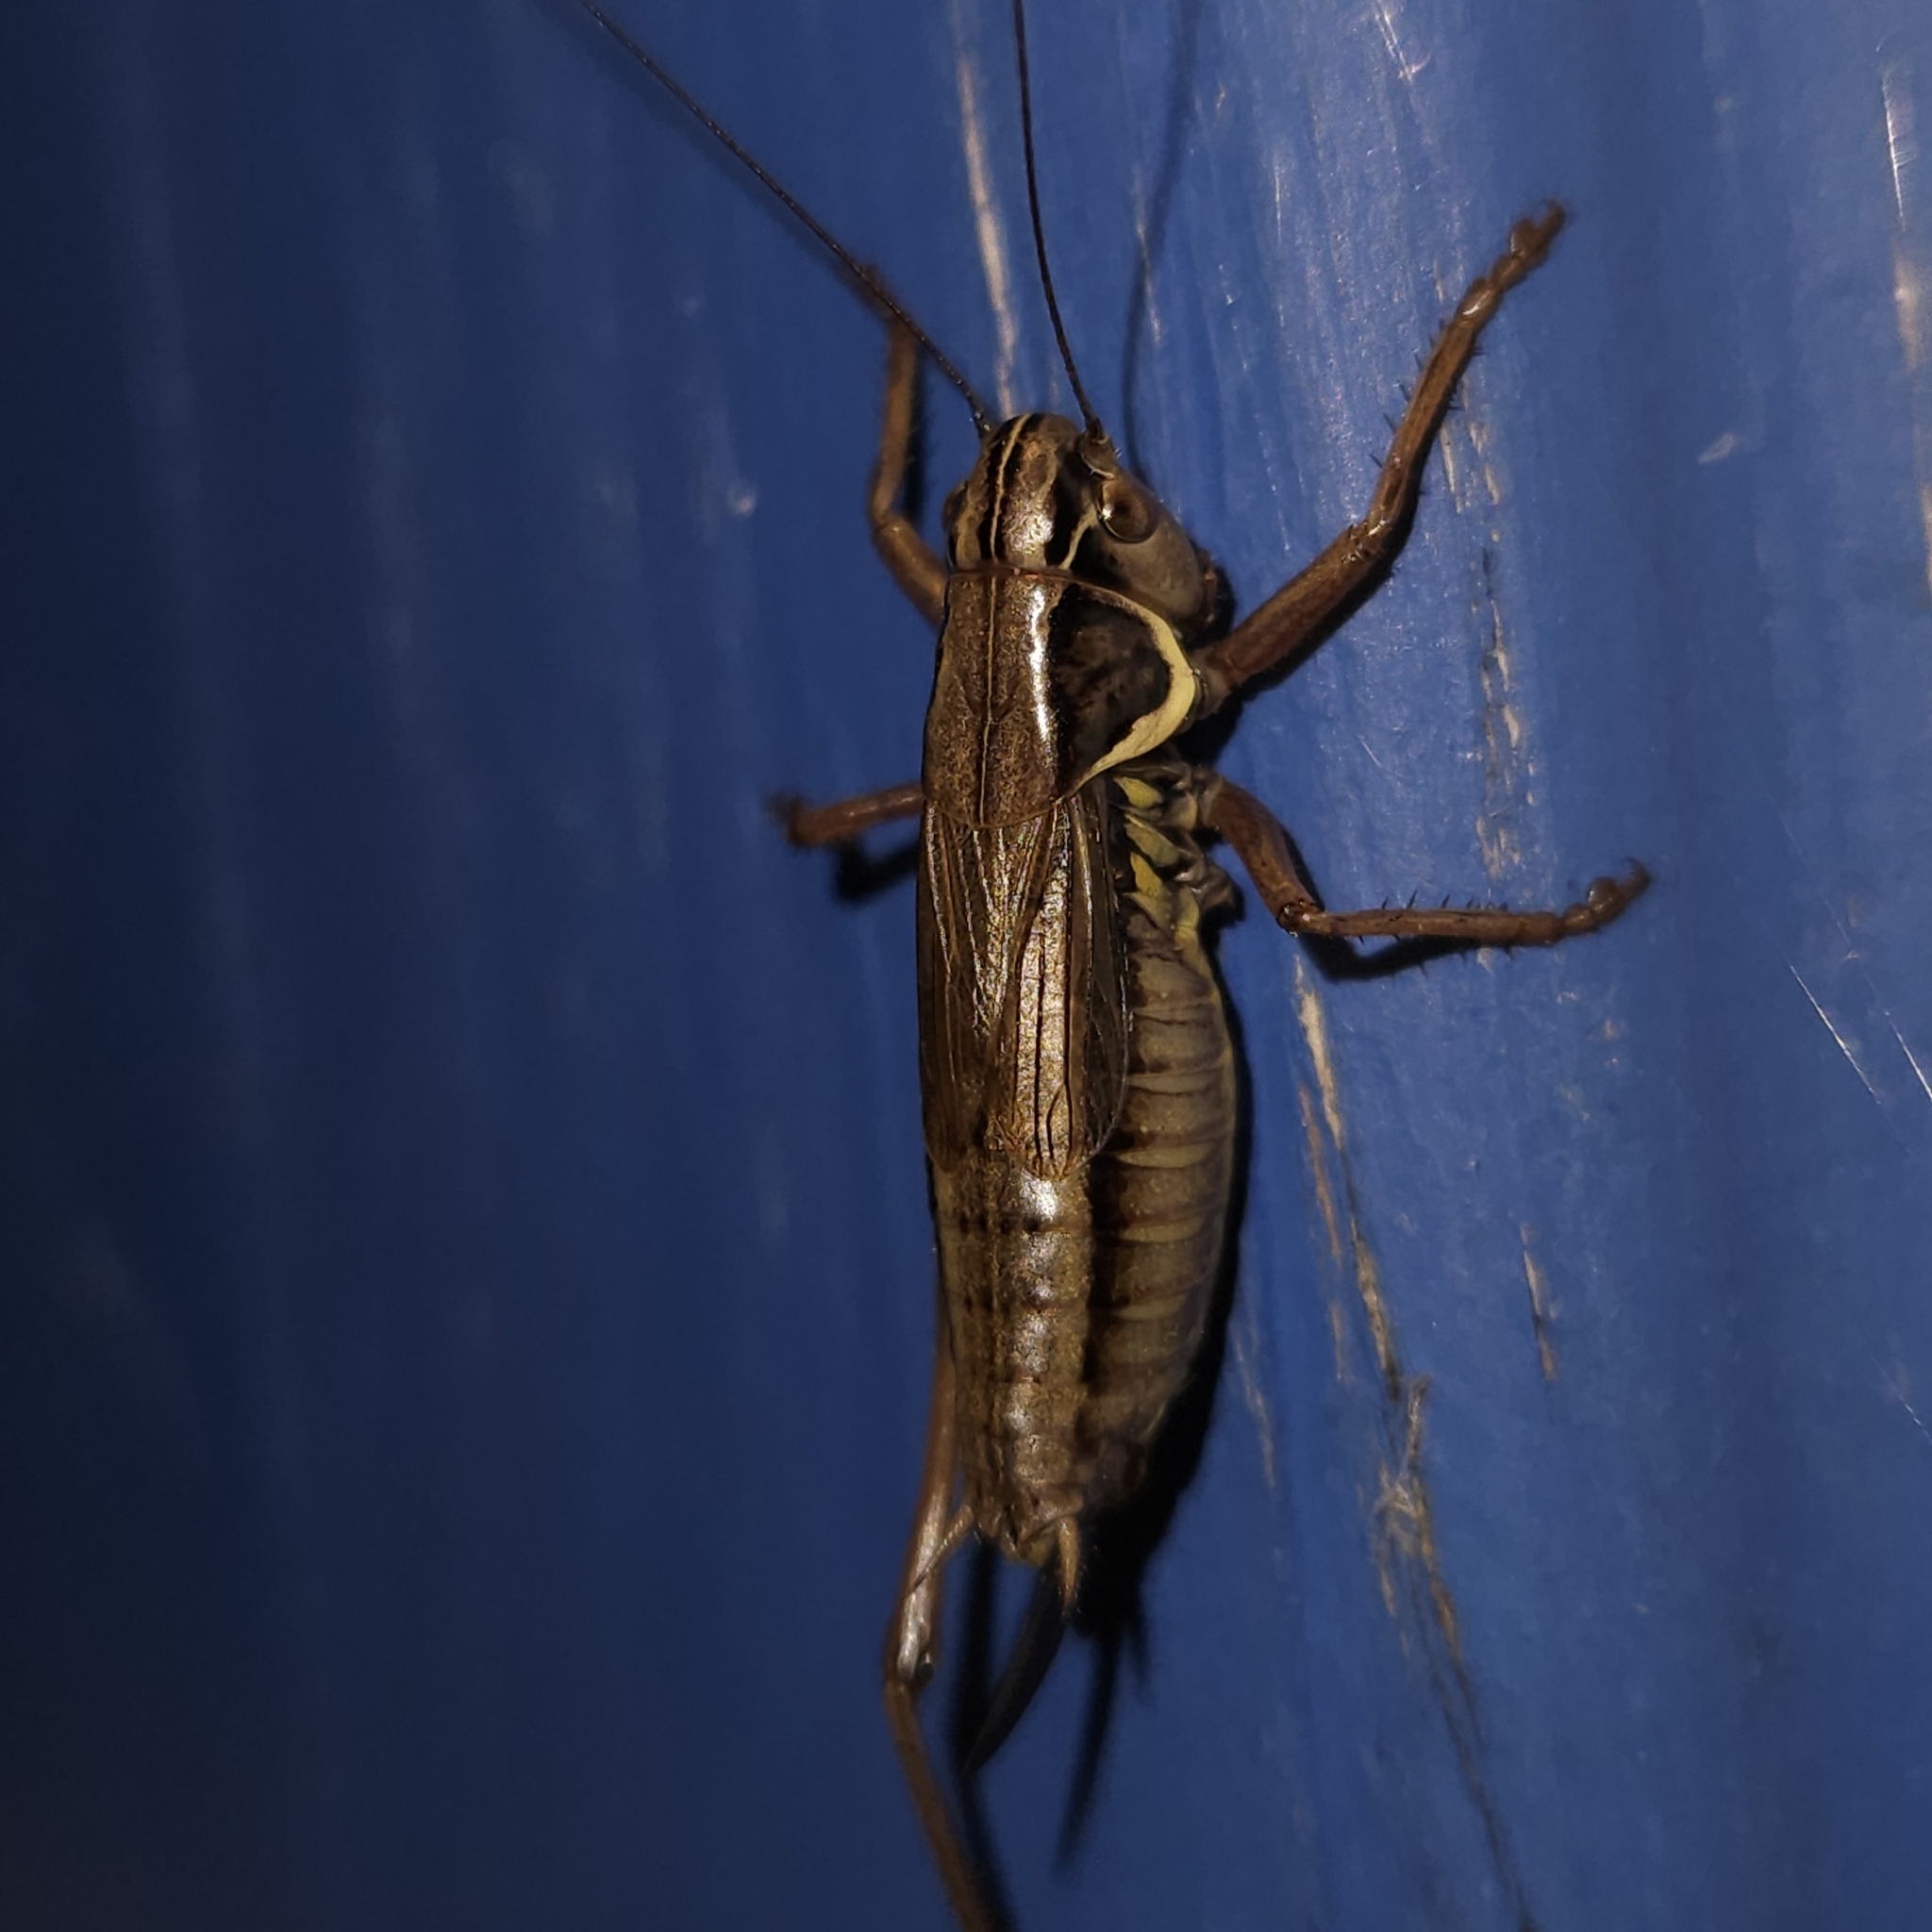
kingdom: Animalia
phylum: Arthropoda
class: Insecta
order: Orthoptera
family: Tettigoniidae
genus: Roeseliana
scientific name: Roeseliana roeselii
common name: Roesel's bush cricket
